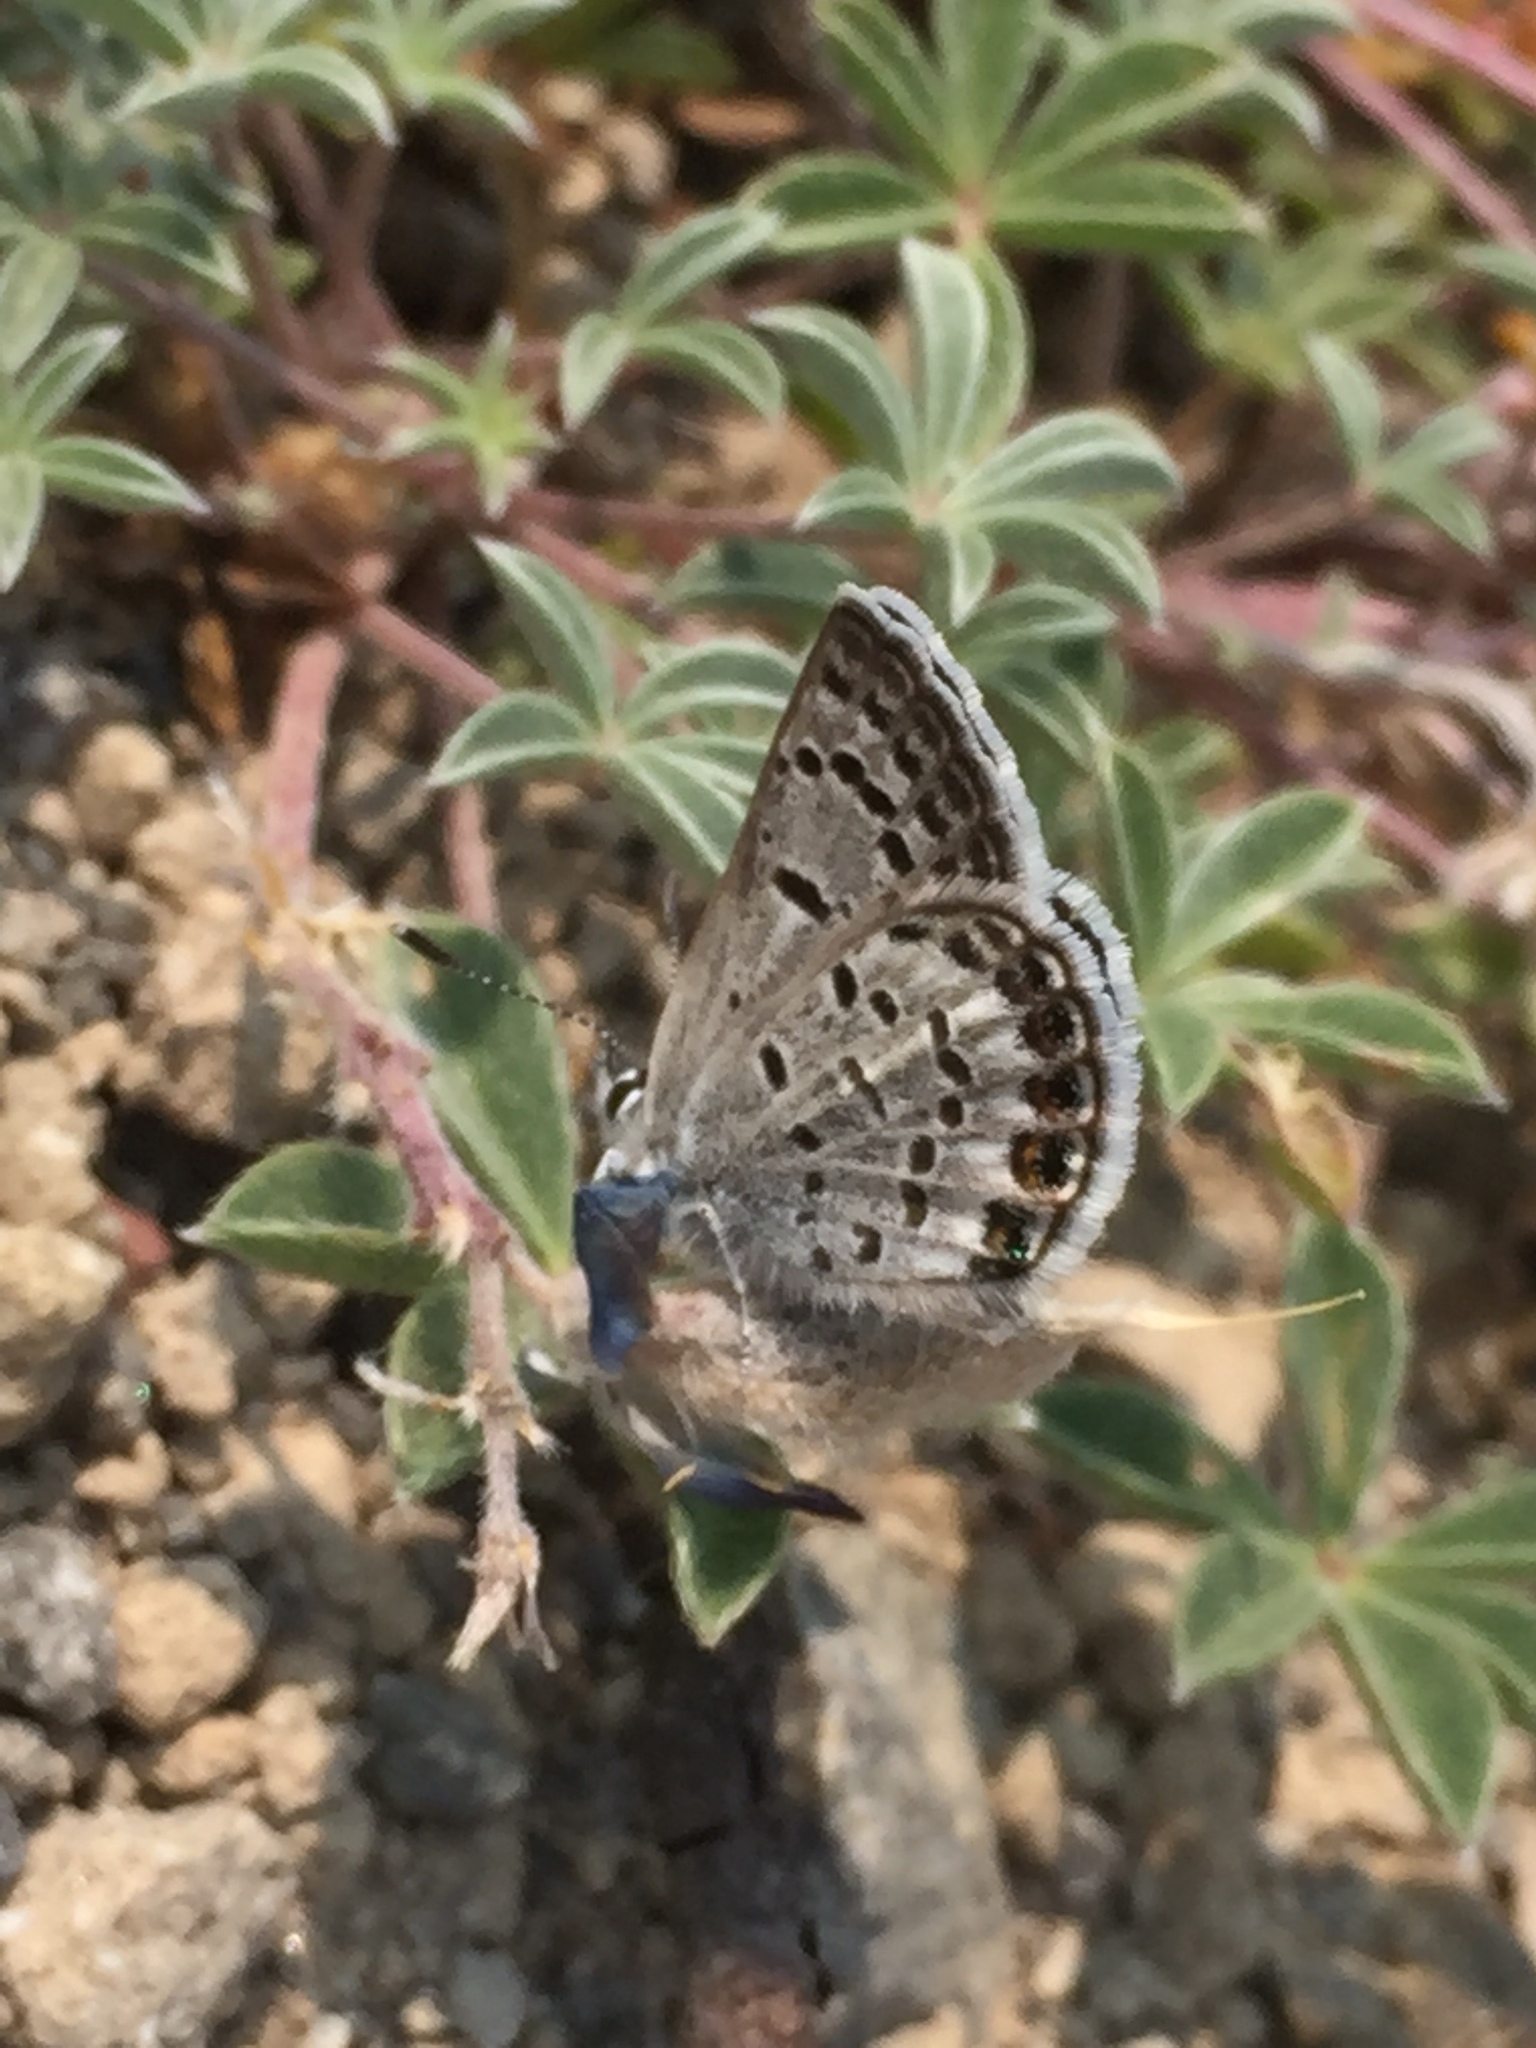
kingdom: Animalia
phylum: Arthropoda
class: Insecta
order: Lepidoptera
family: Lycaenidae
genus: Icaricia
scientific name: Icaricia shasta
